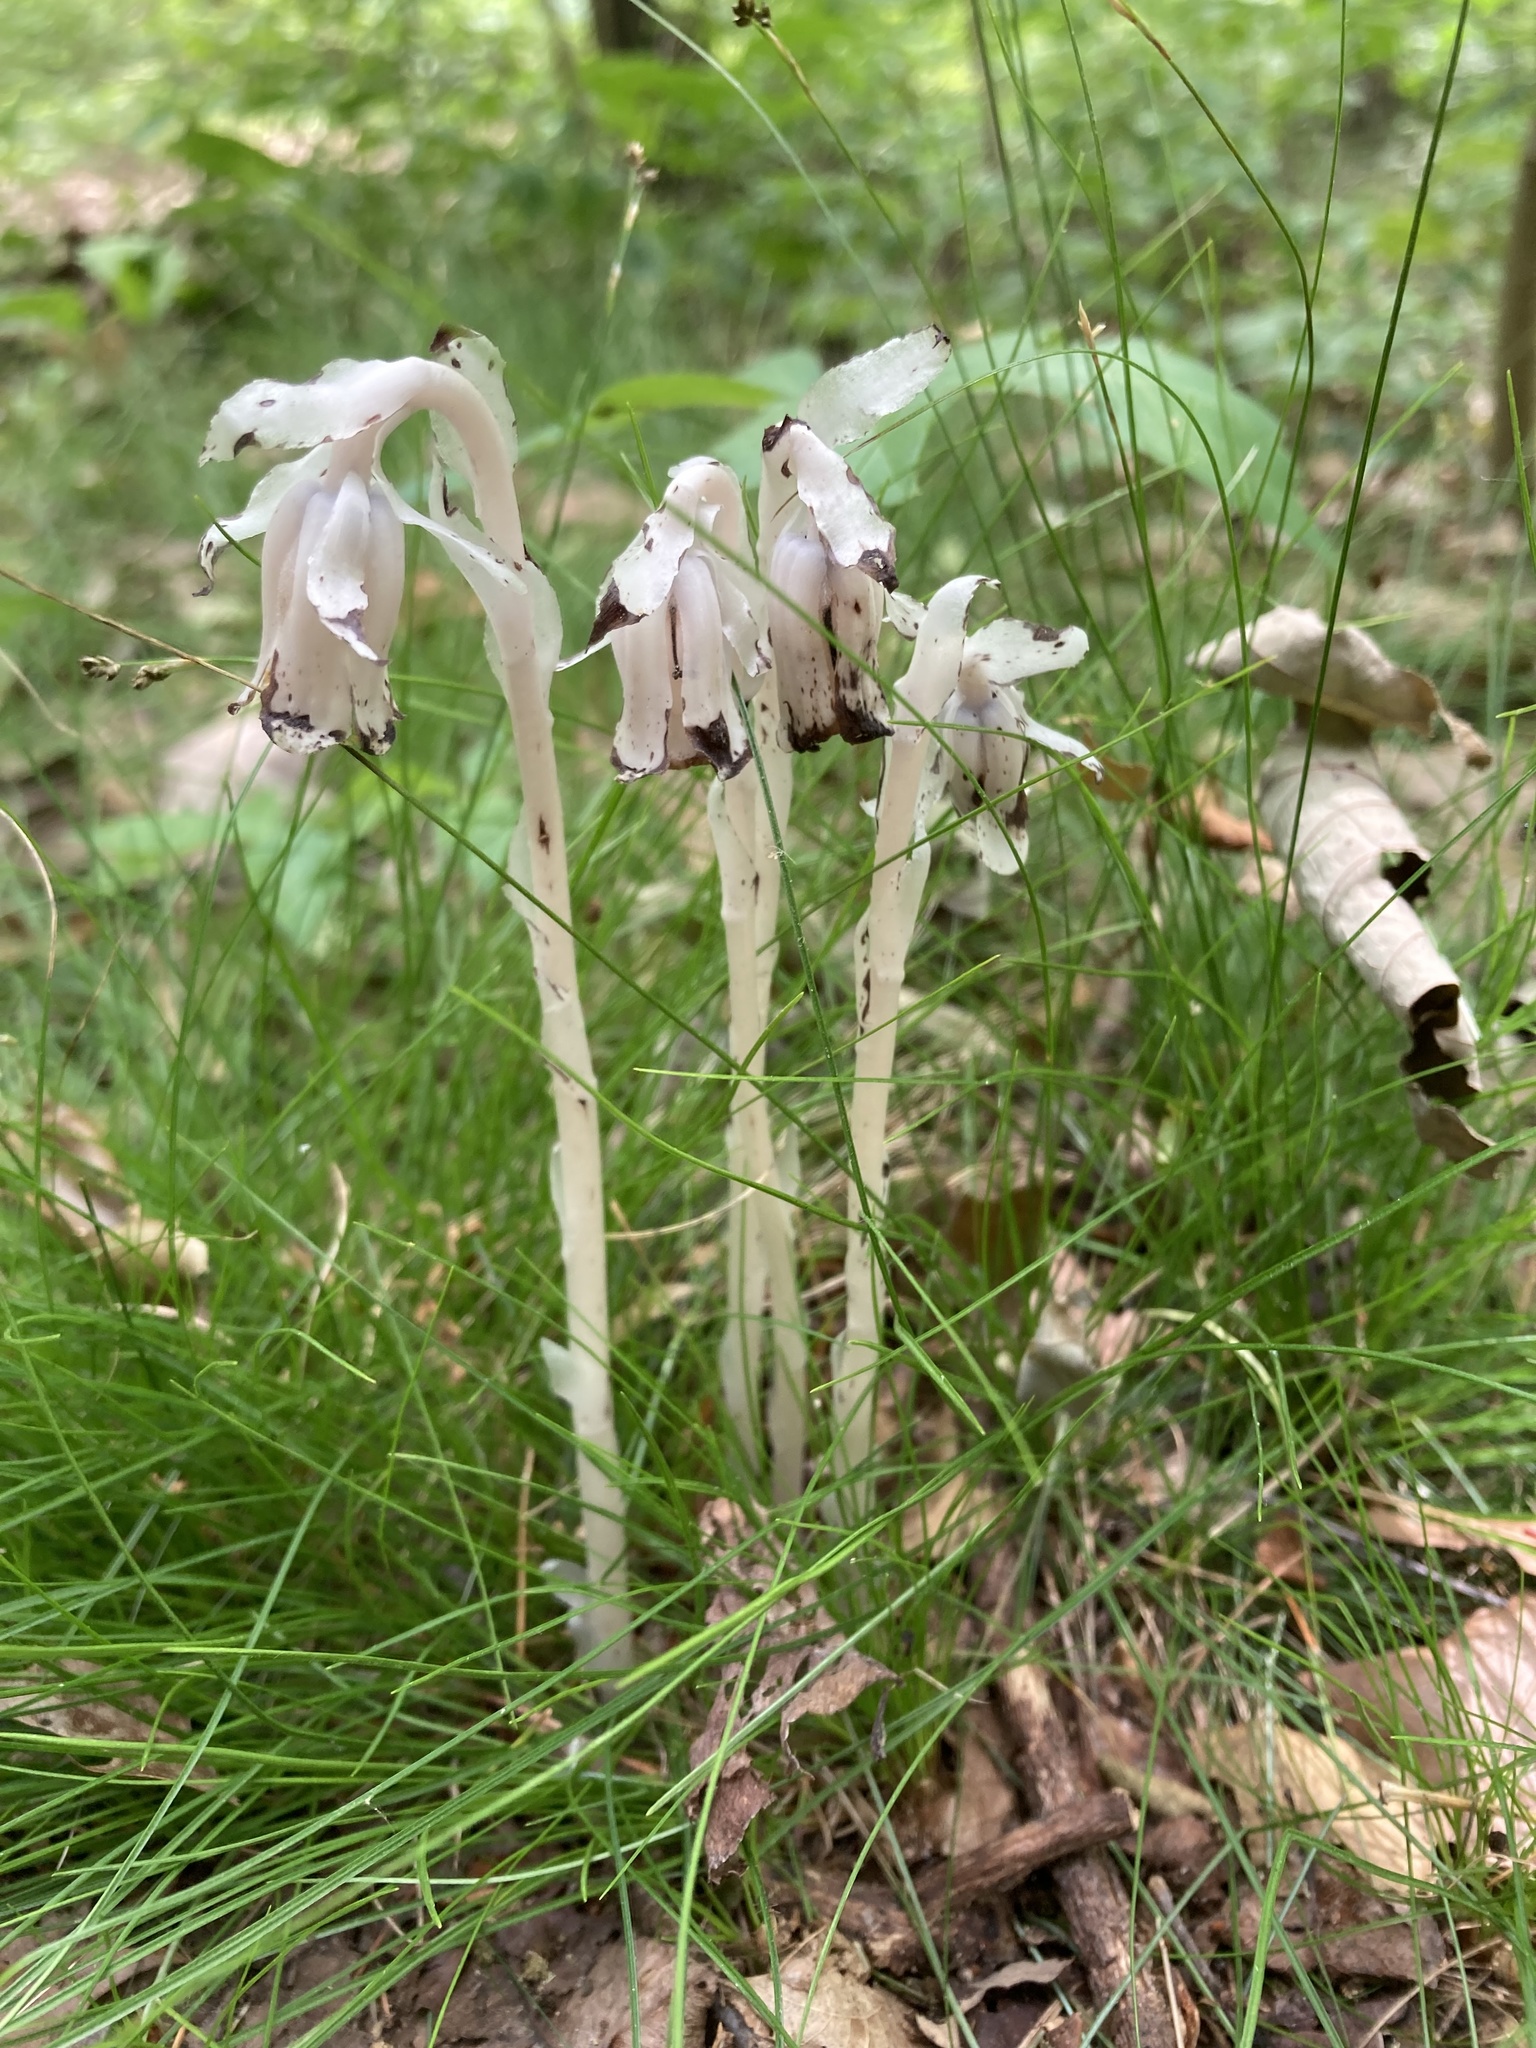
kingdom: Plantae
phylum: Tracheophyta
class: Magnoliopsida
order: Ericales
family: Ericaceae
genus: Monotropa
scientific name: Monotropa uniflora
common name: Convulsion root
